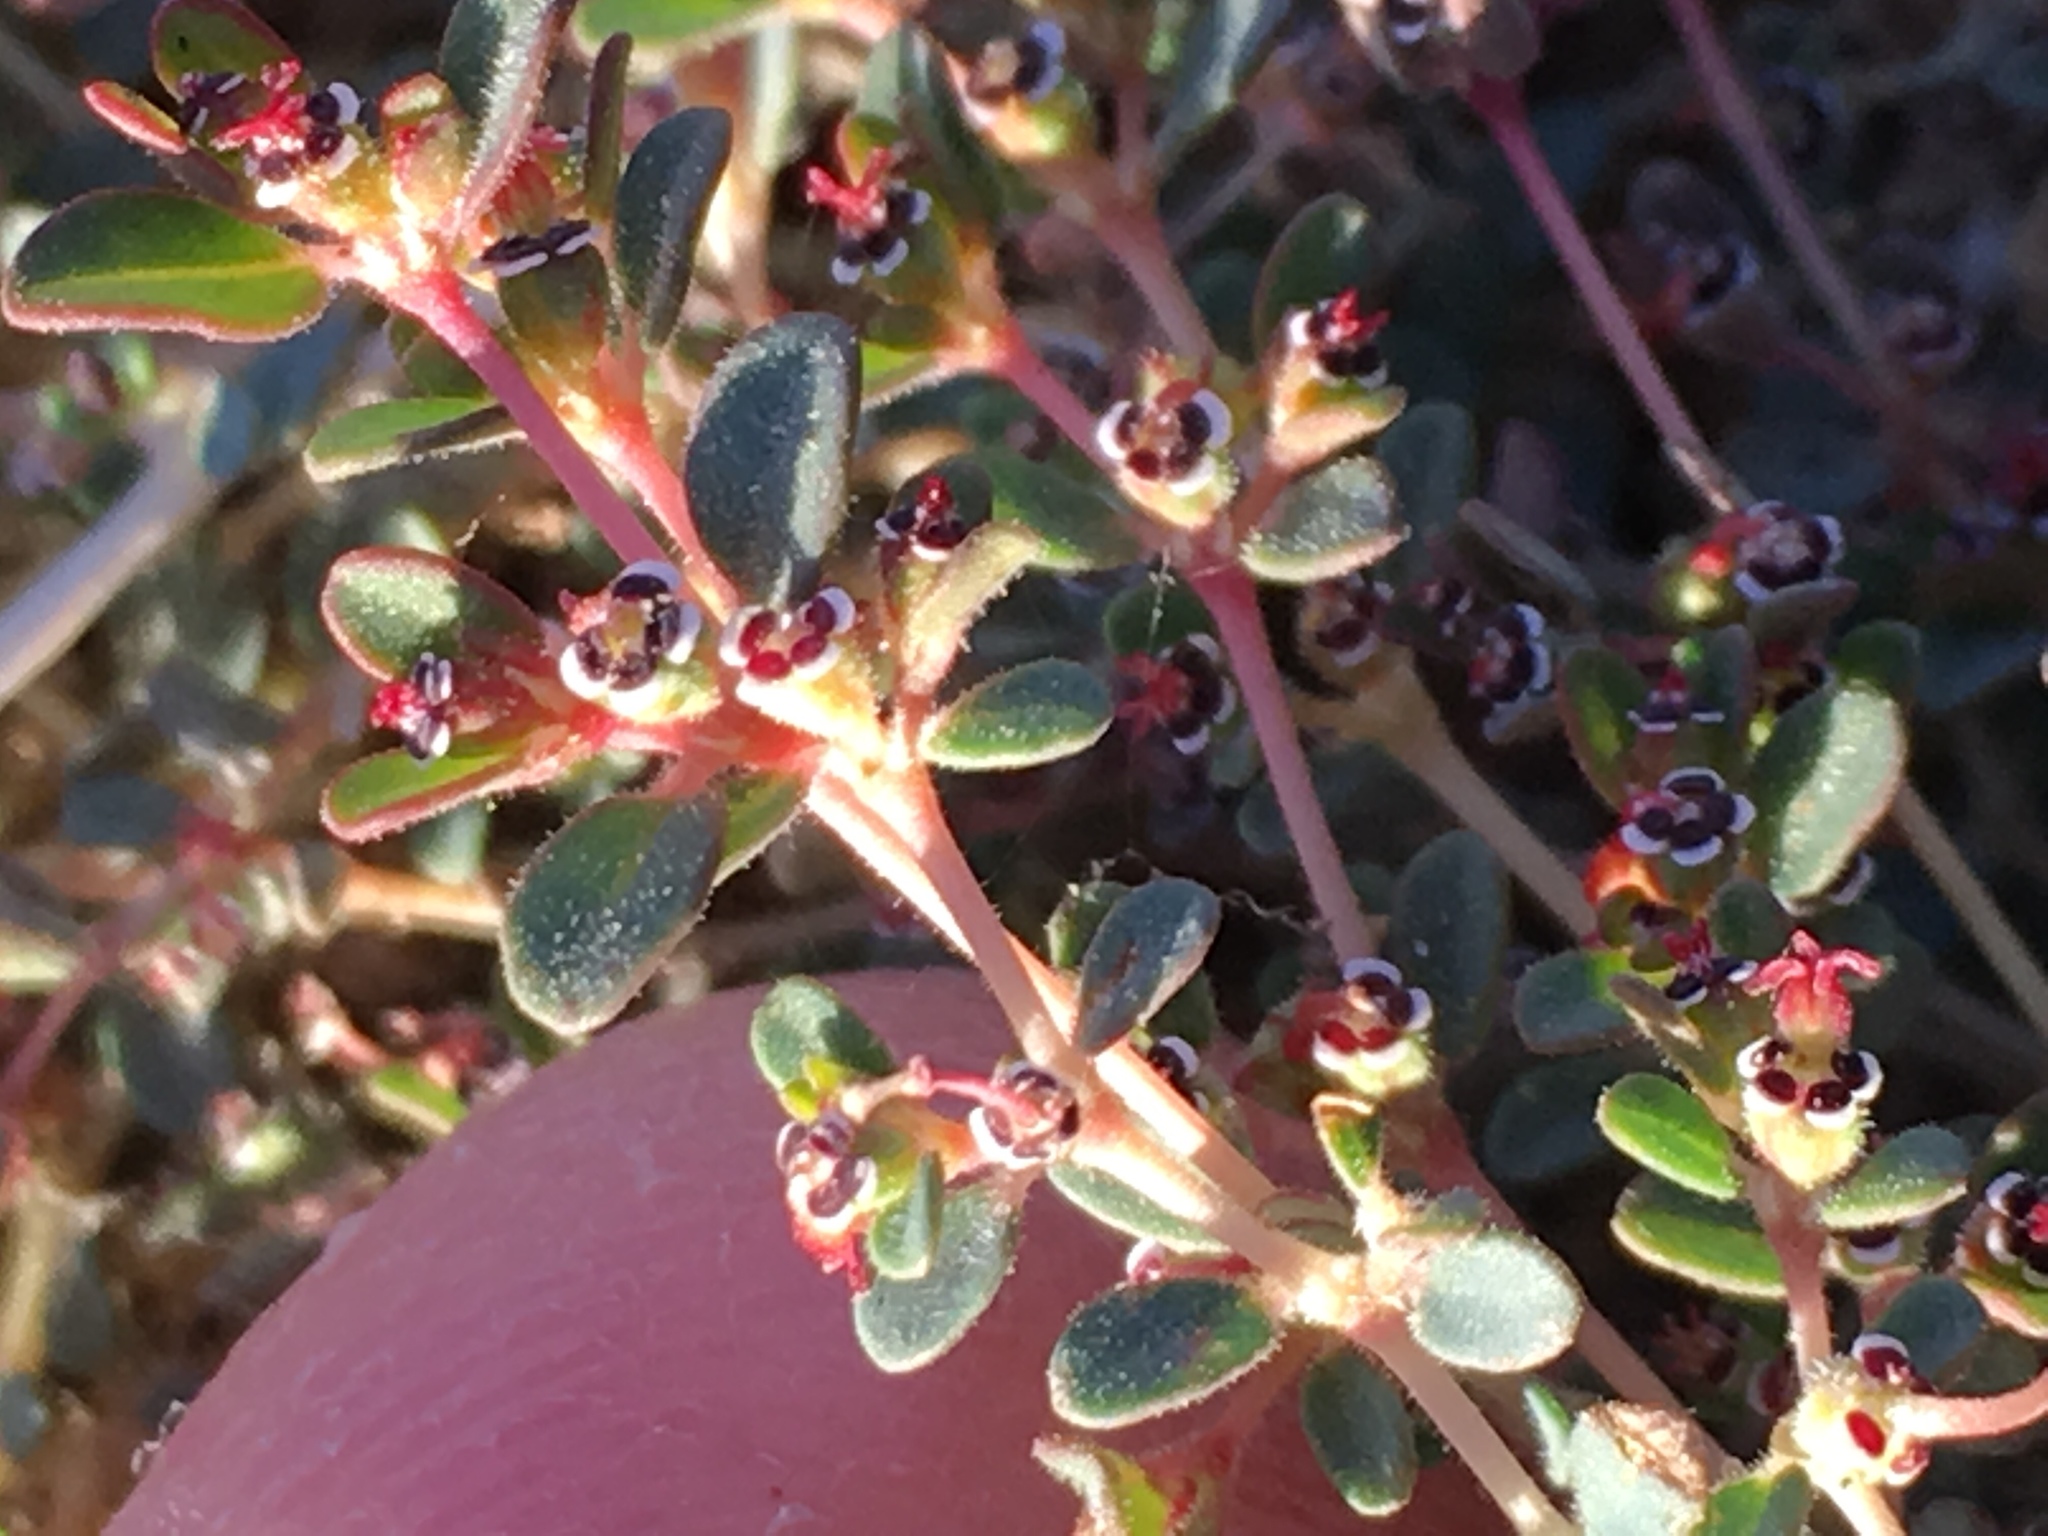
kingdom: Plantae
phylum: Tracheophyta
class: Magnoliopsida
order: Malpighiales
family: Euphorbiaceae
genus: Euphorbia
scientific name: Euphorbia polycarpa
